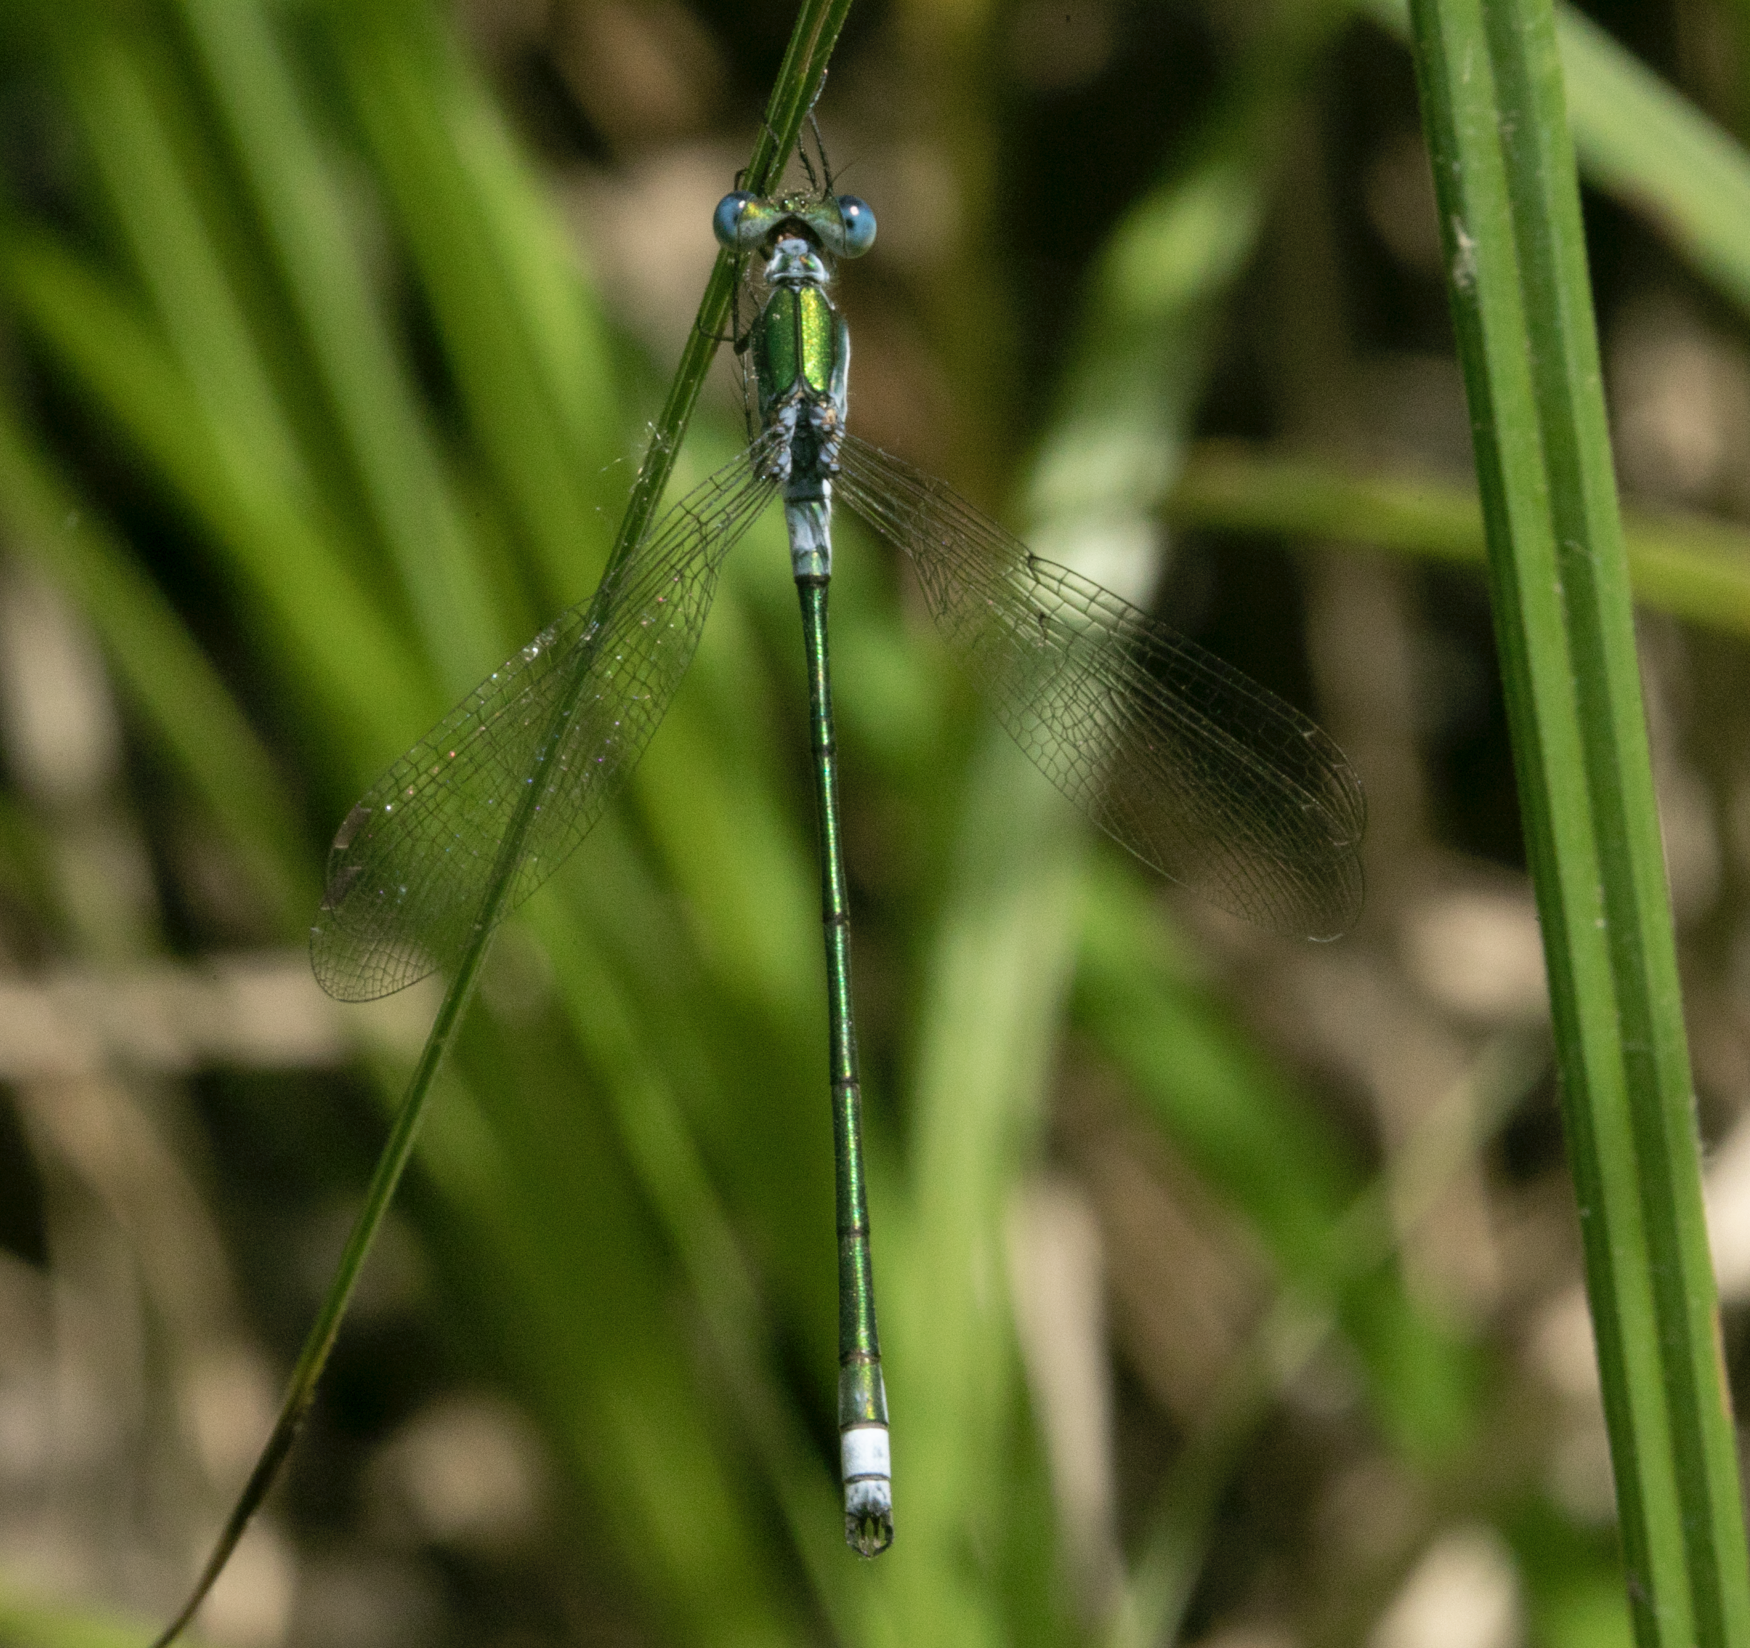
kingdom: Animalia
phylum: Arthropoda
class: Insecta
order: Odonata
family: Lestidae
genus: Lestes
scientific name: Lestes sponsa
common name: Common spreadwing
